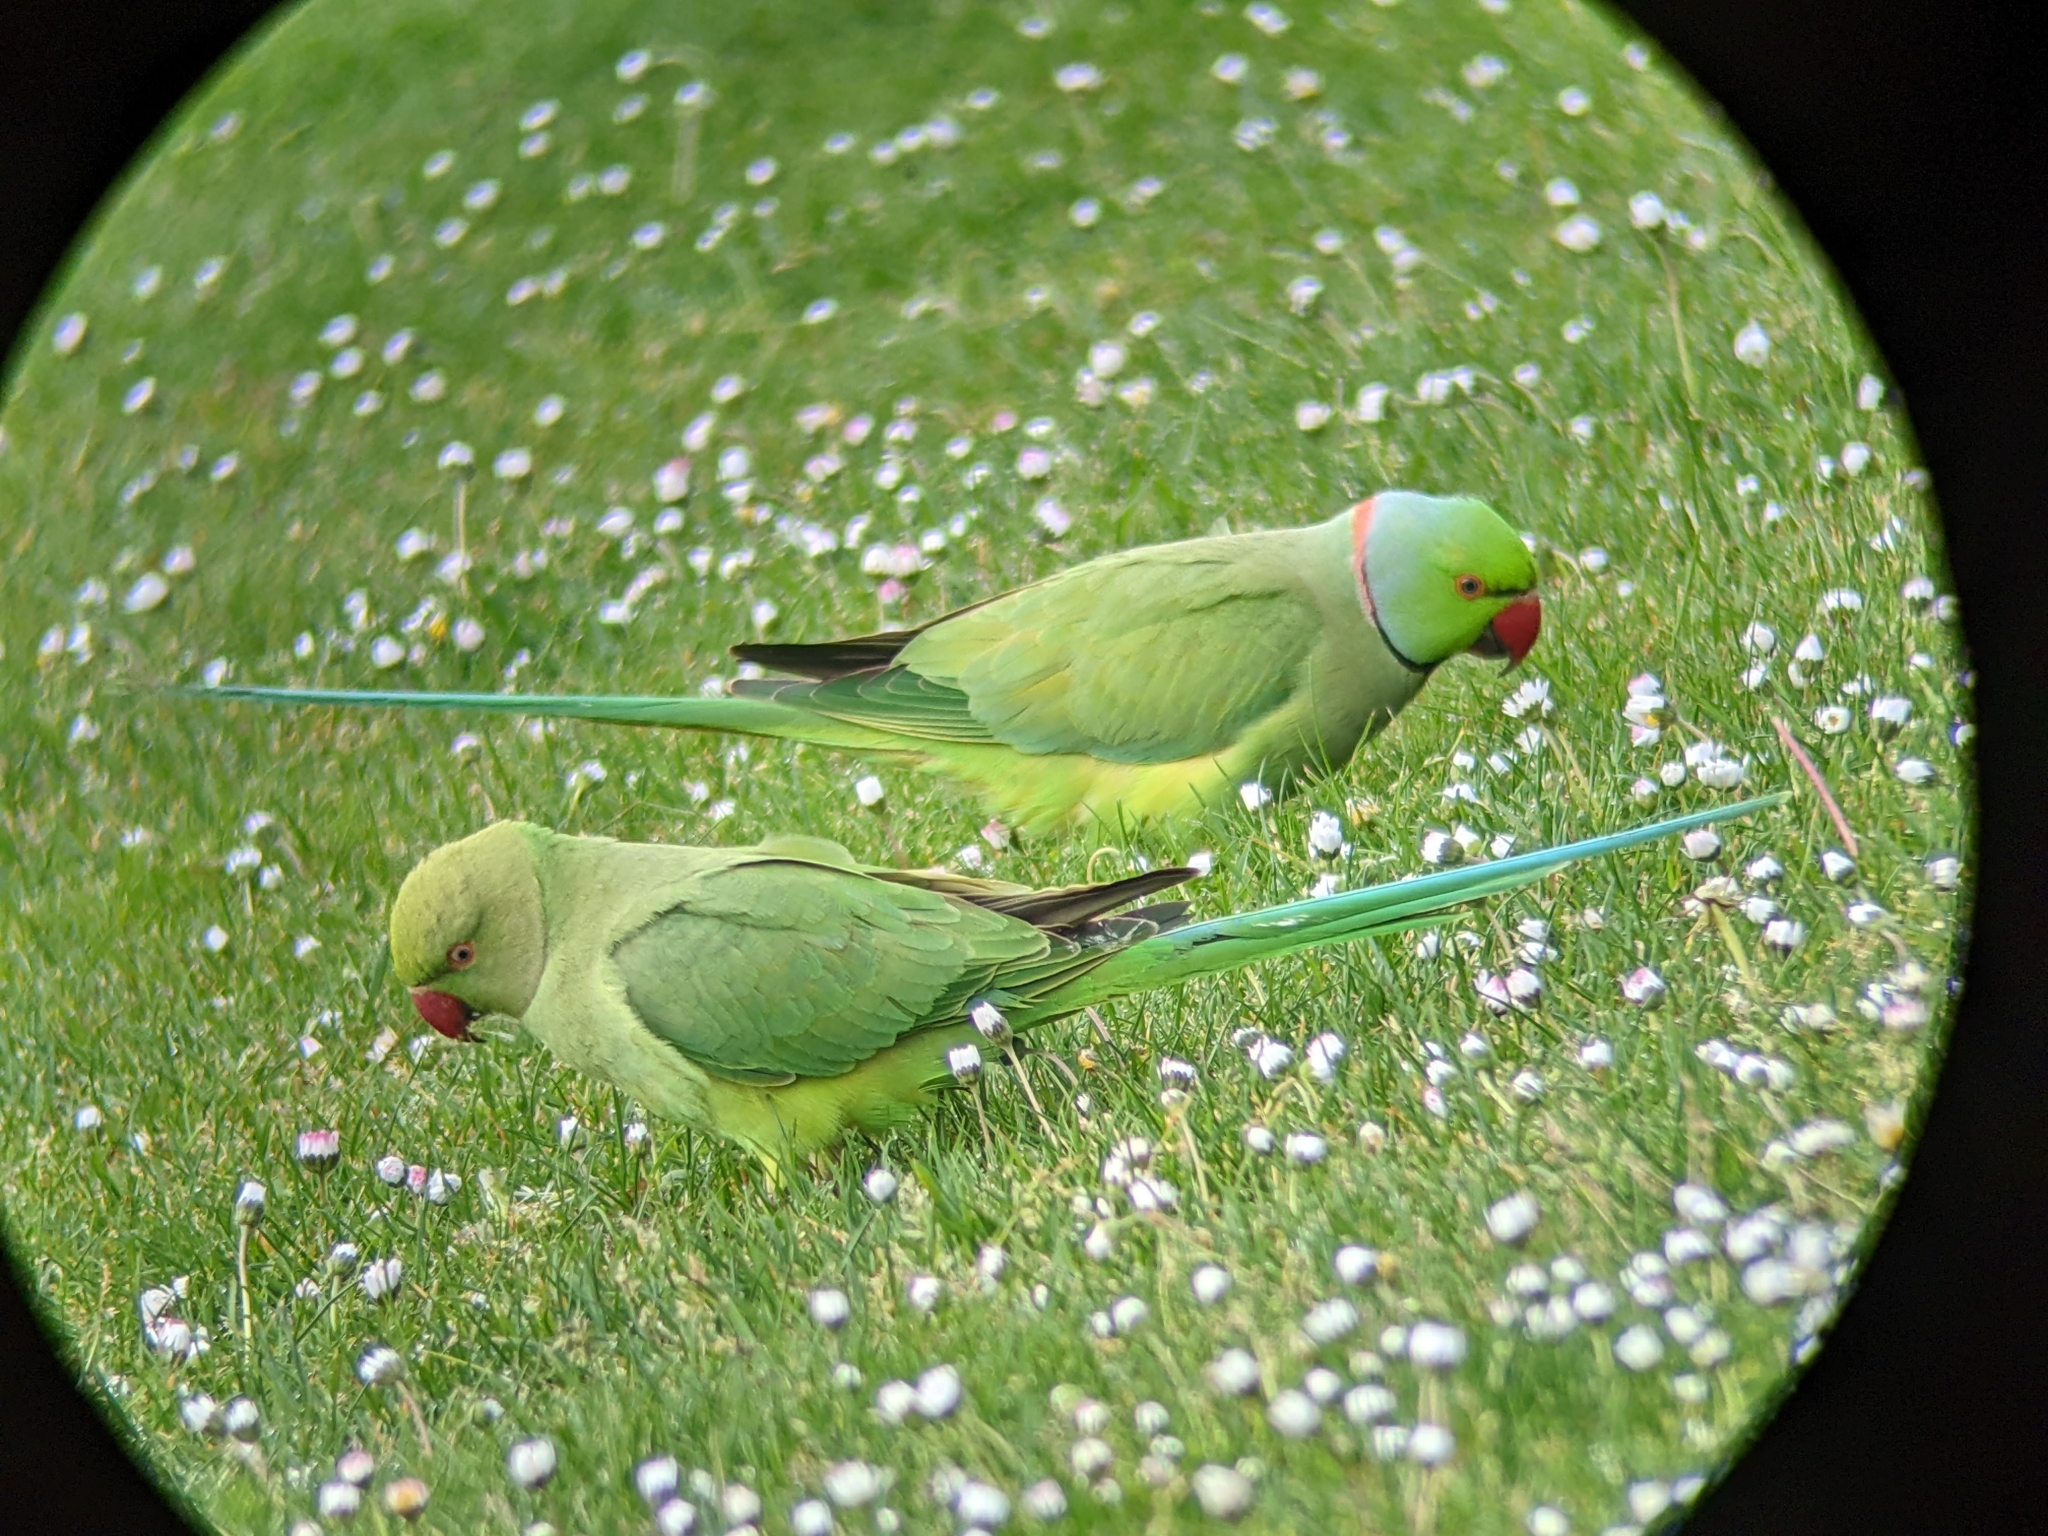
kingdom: Animalia
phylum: Chordata
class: Aves
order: Psittaciformes
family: Psittacidae
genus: Psittacula
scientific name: Psittacula krameri
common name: Rose-ringed parakeet
